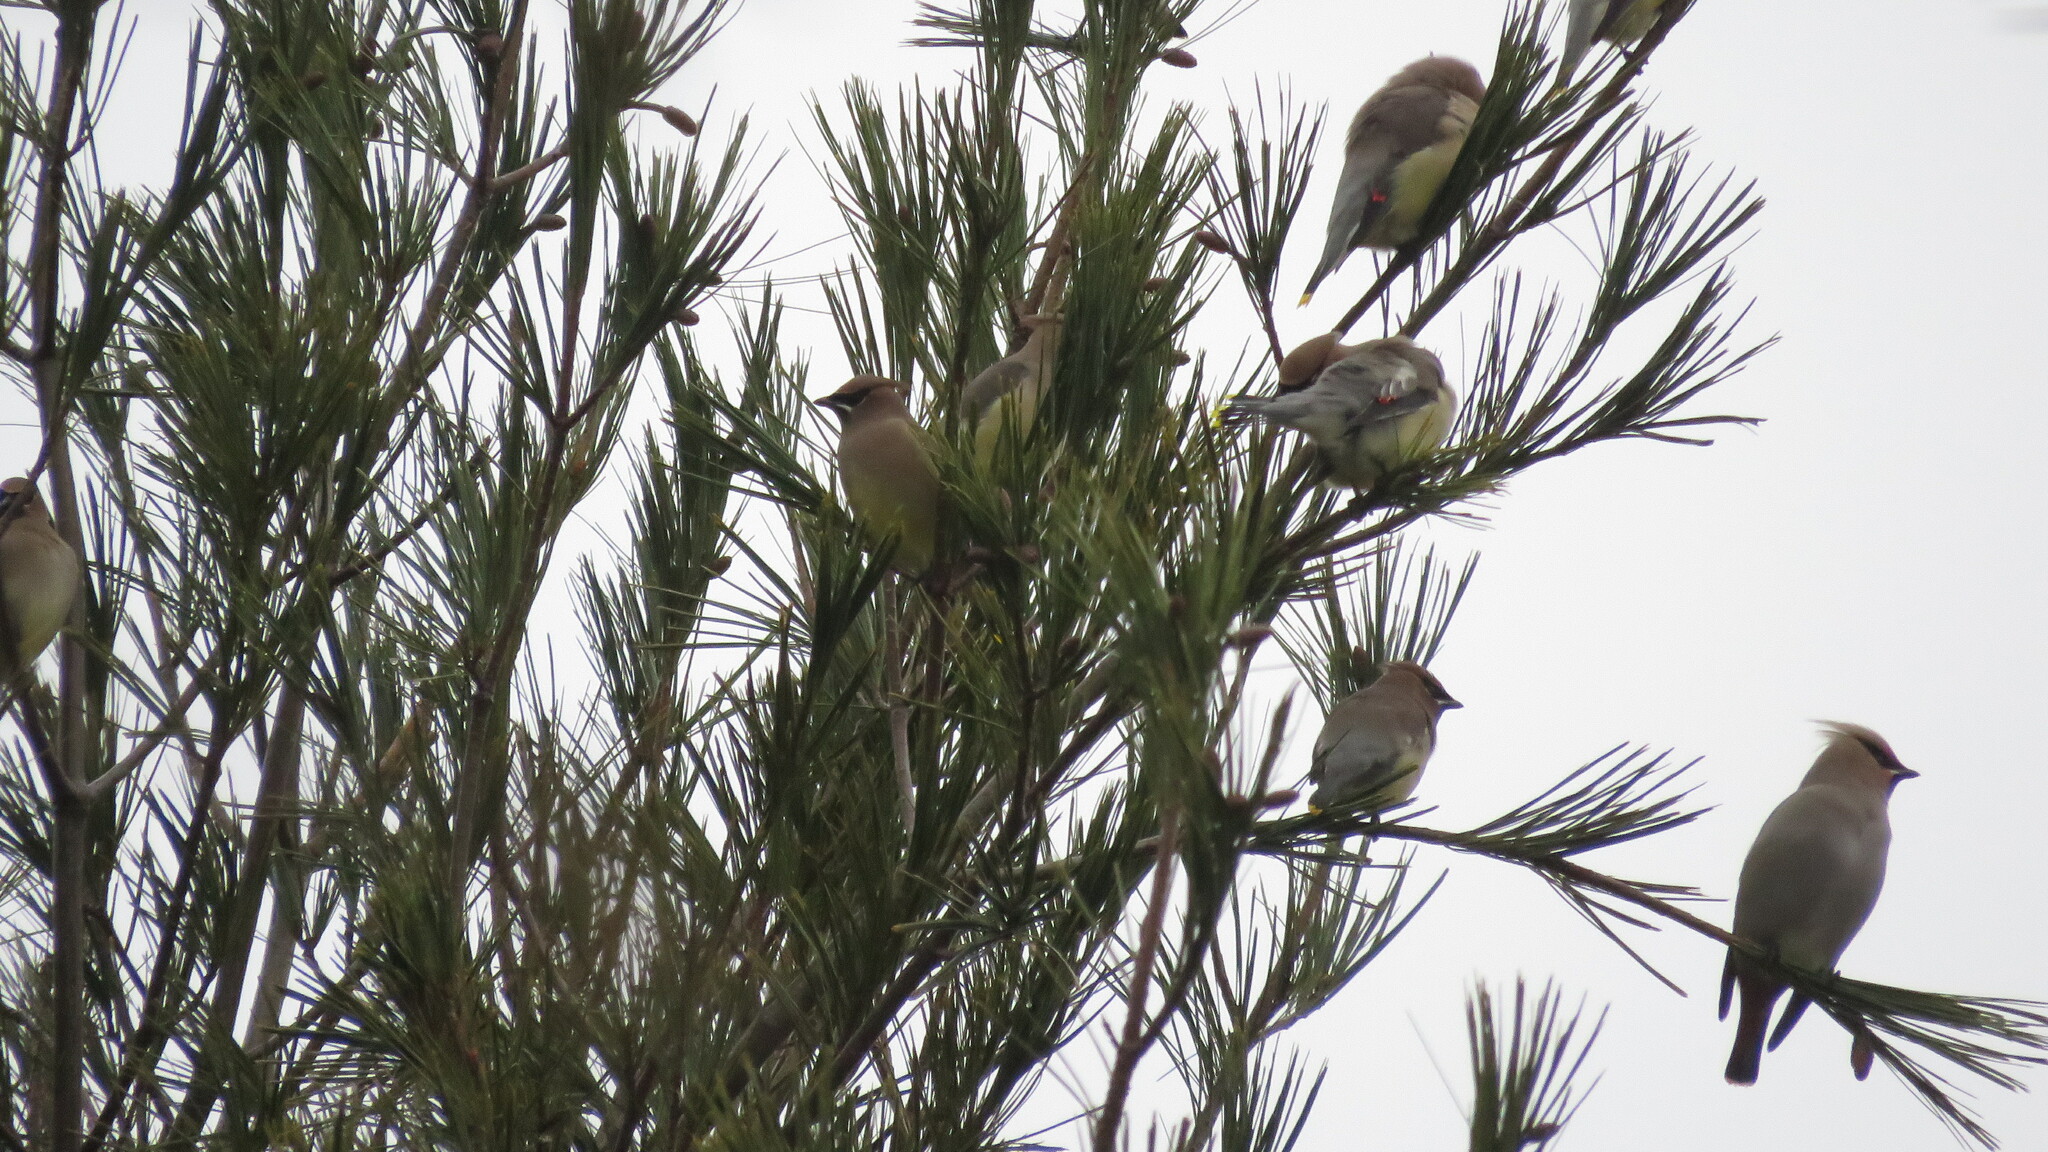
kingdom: Animalia
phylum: Chordata
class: Aves
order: Passeriformes
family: Bombycillidae
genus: Bombycilla
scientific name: Bombycilla cedrorum
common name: Cedar waxwing
